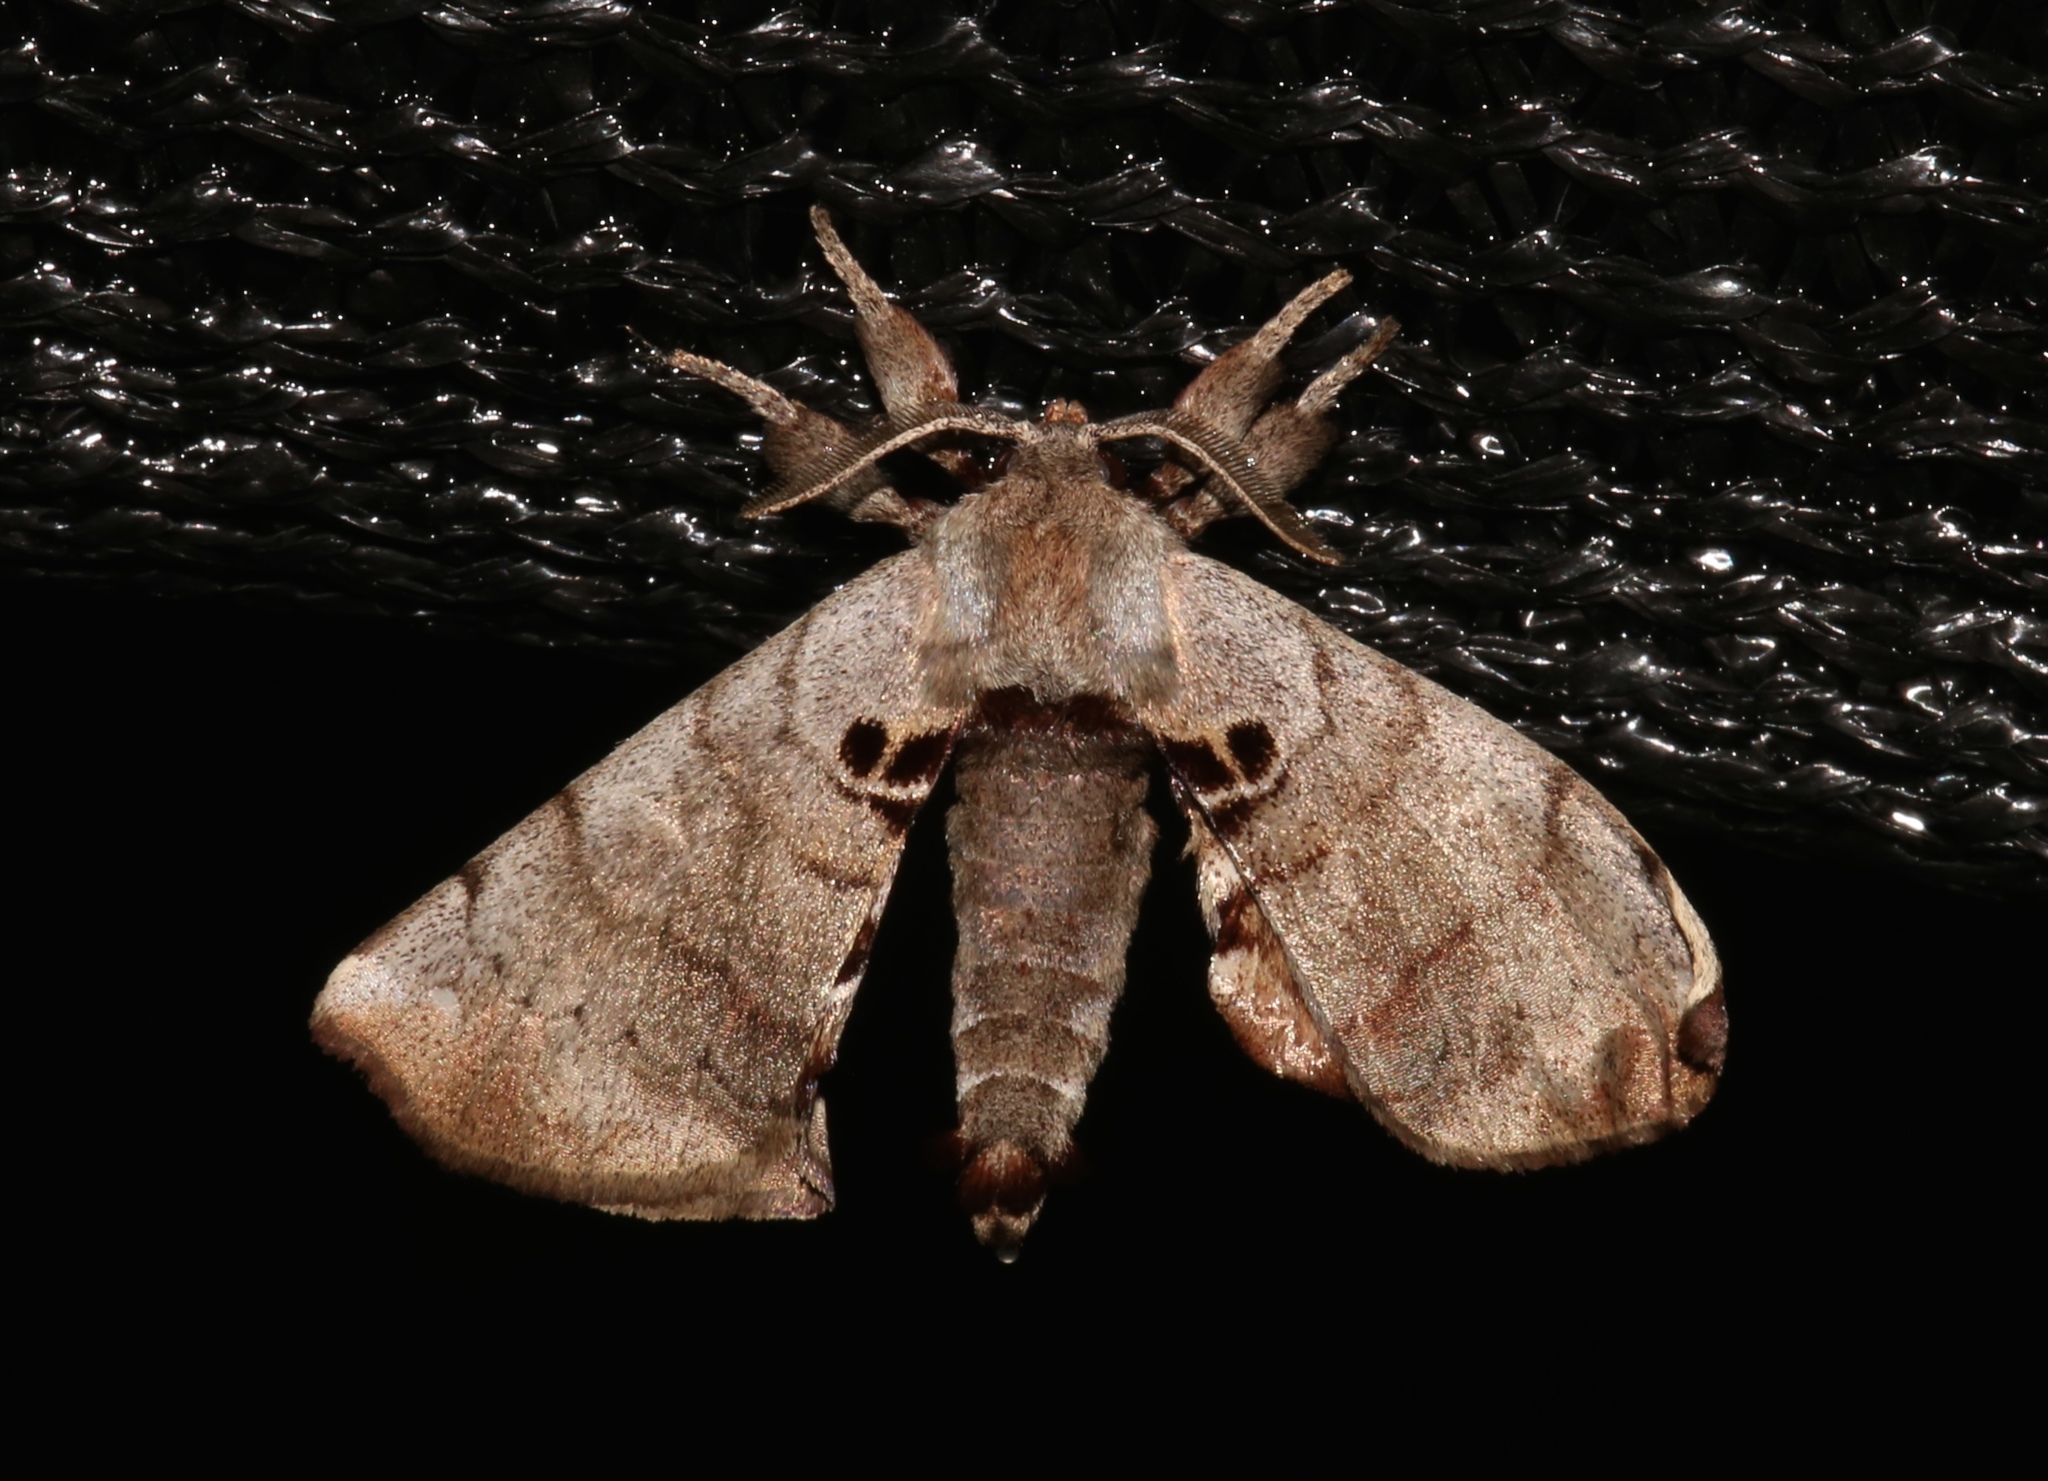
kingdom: Animalia
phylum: Arthropoda
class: Insecta
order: Lepidoptera
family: Apatelodidae
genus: Hygrochroa
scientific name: Hygrochroa Apatelodes torrefacta
